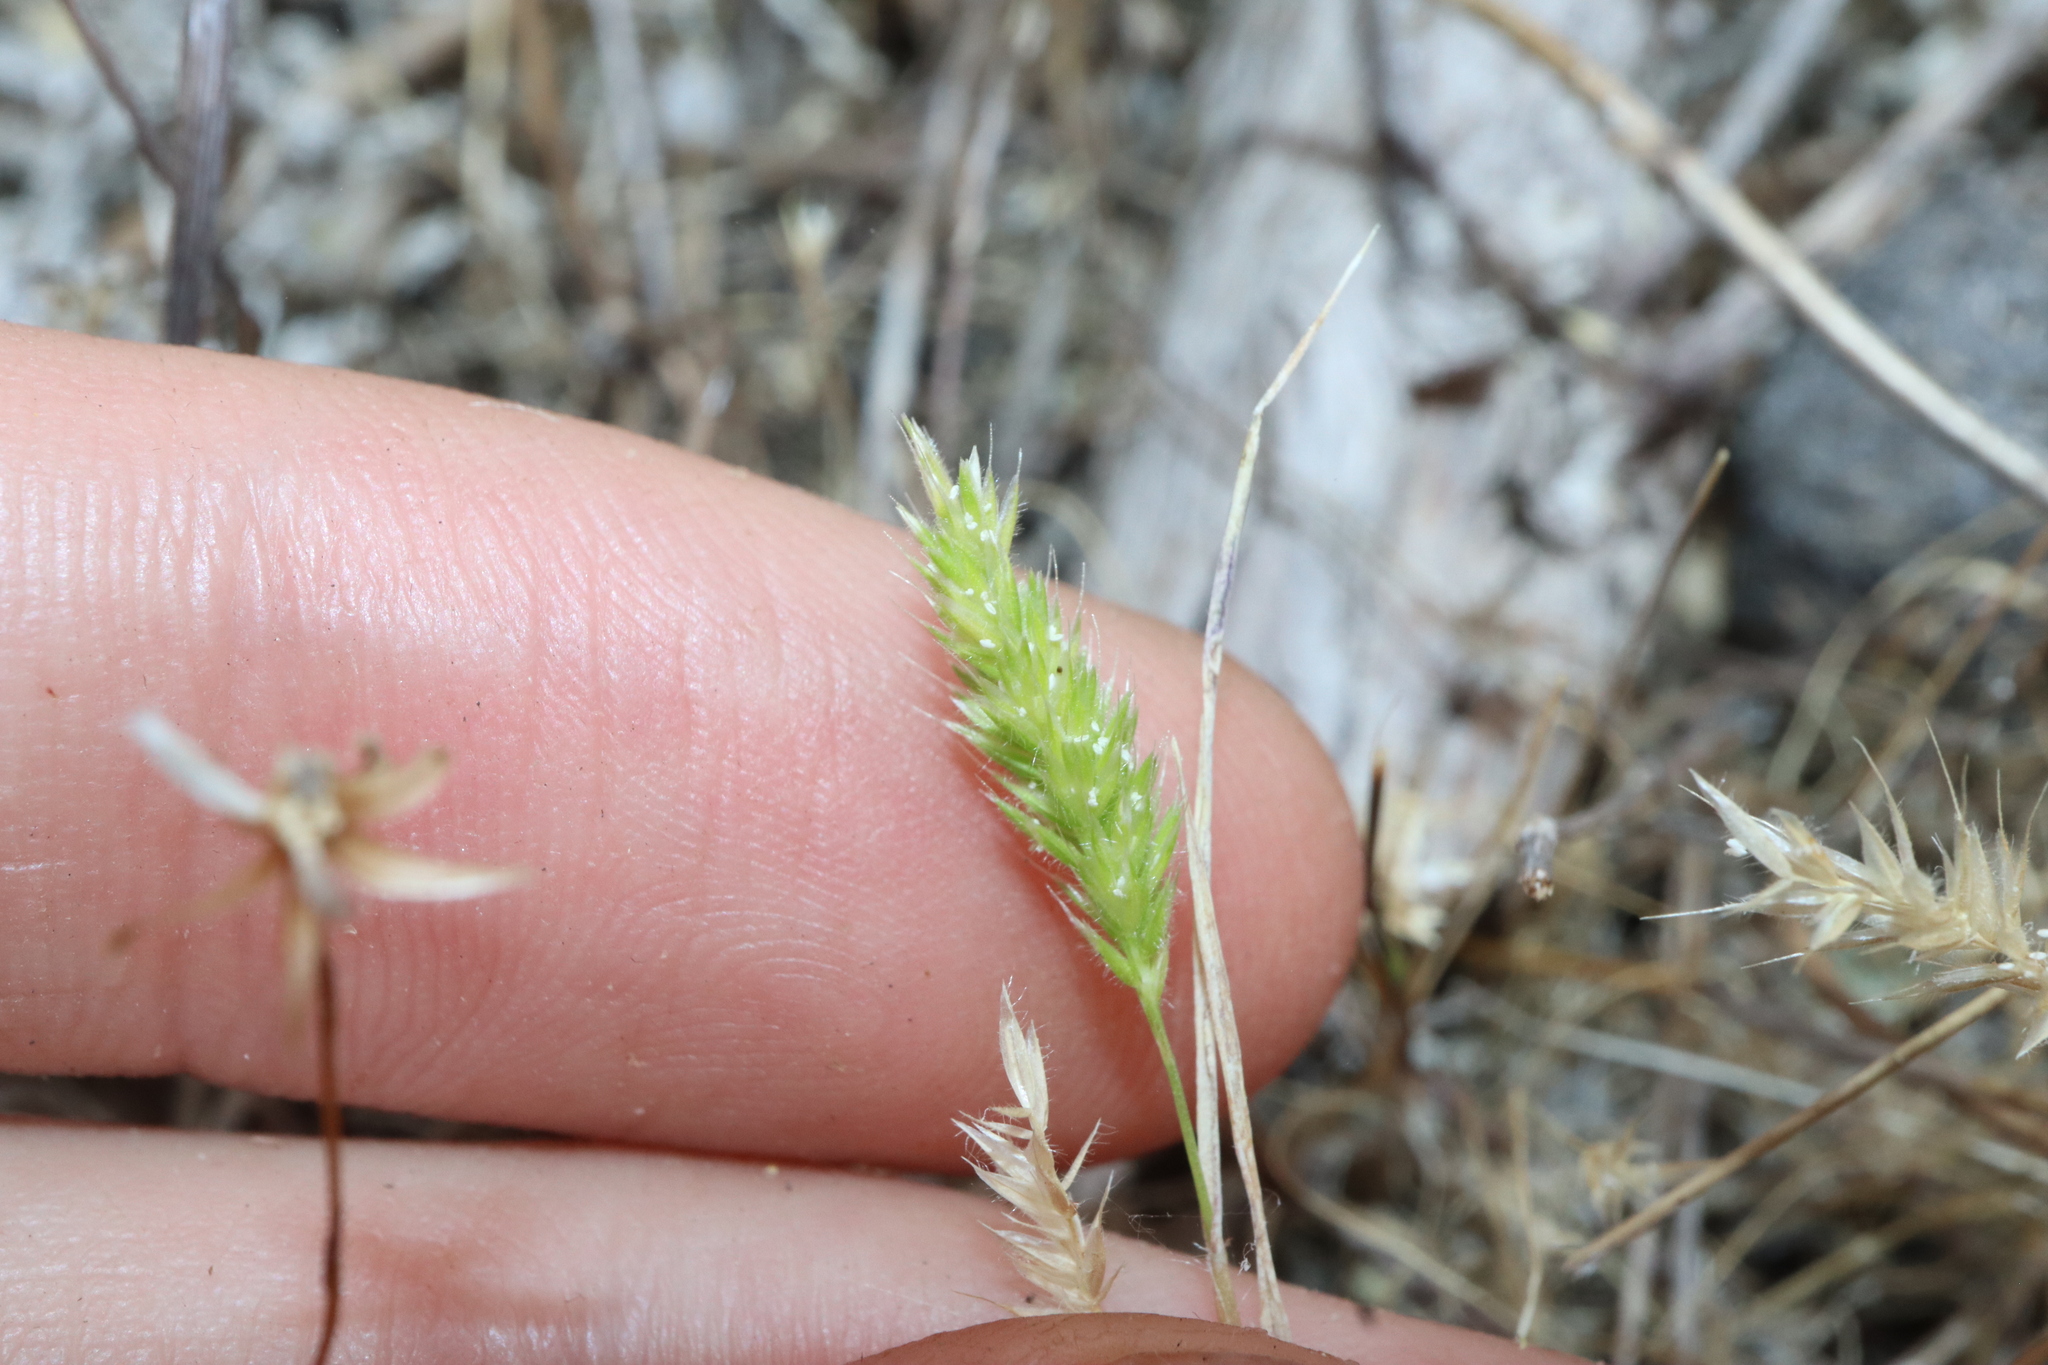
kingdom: Plantae
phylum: Tracheophyta
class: Liliopsida
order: Poales
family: Poaceae
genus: Rostraria
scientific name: Rostraria cristata
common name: Mediterranean hair-grass
